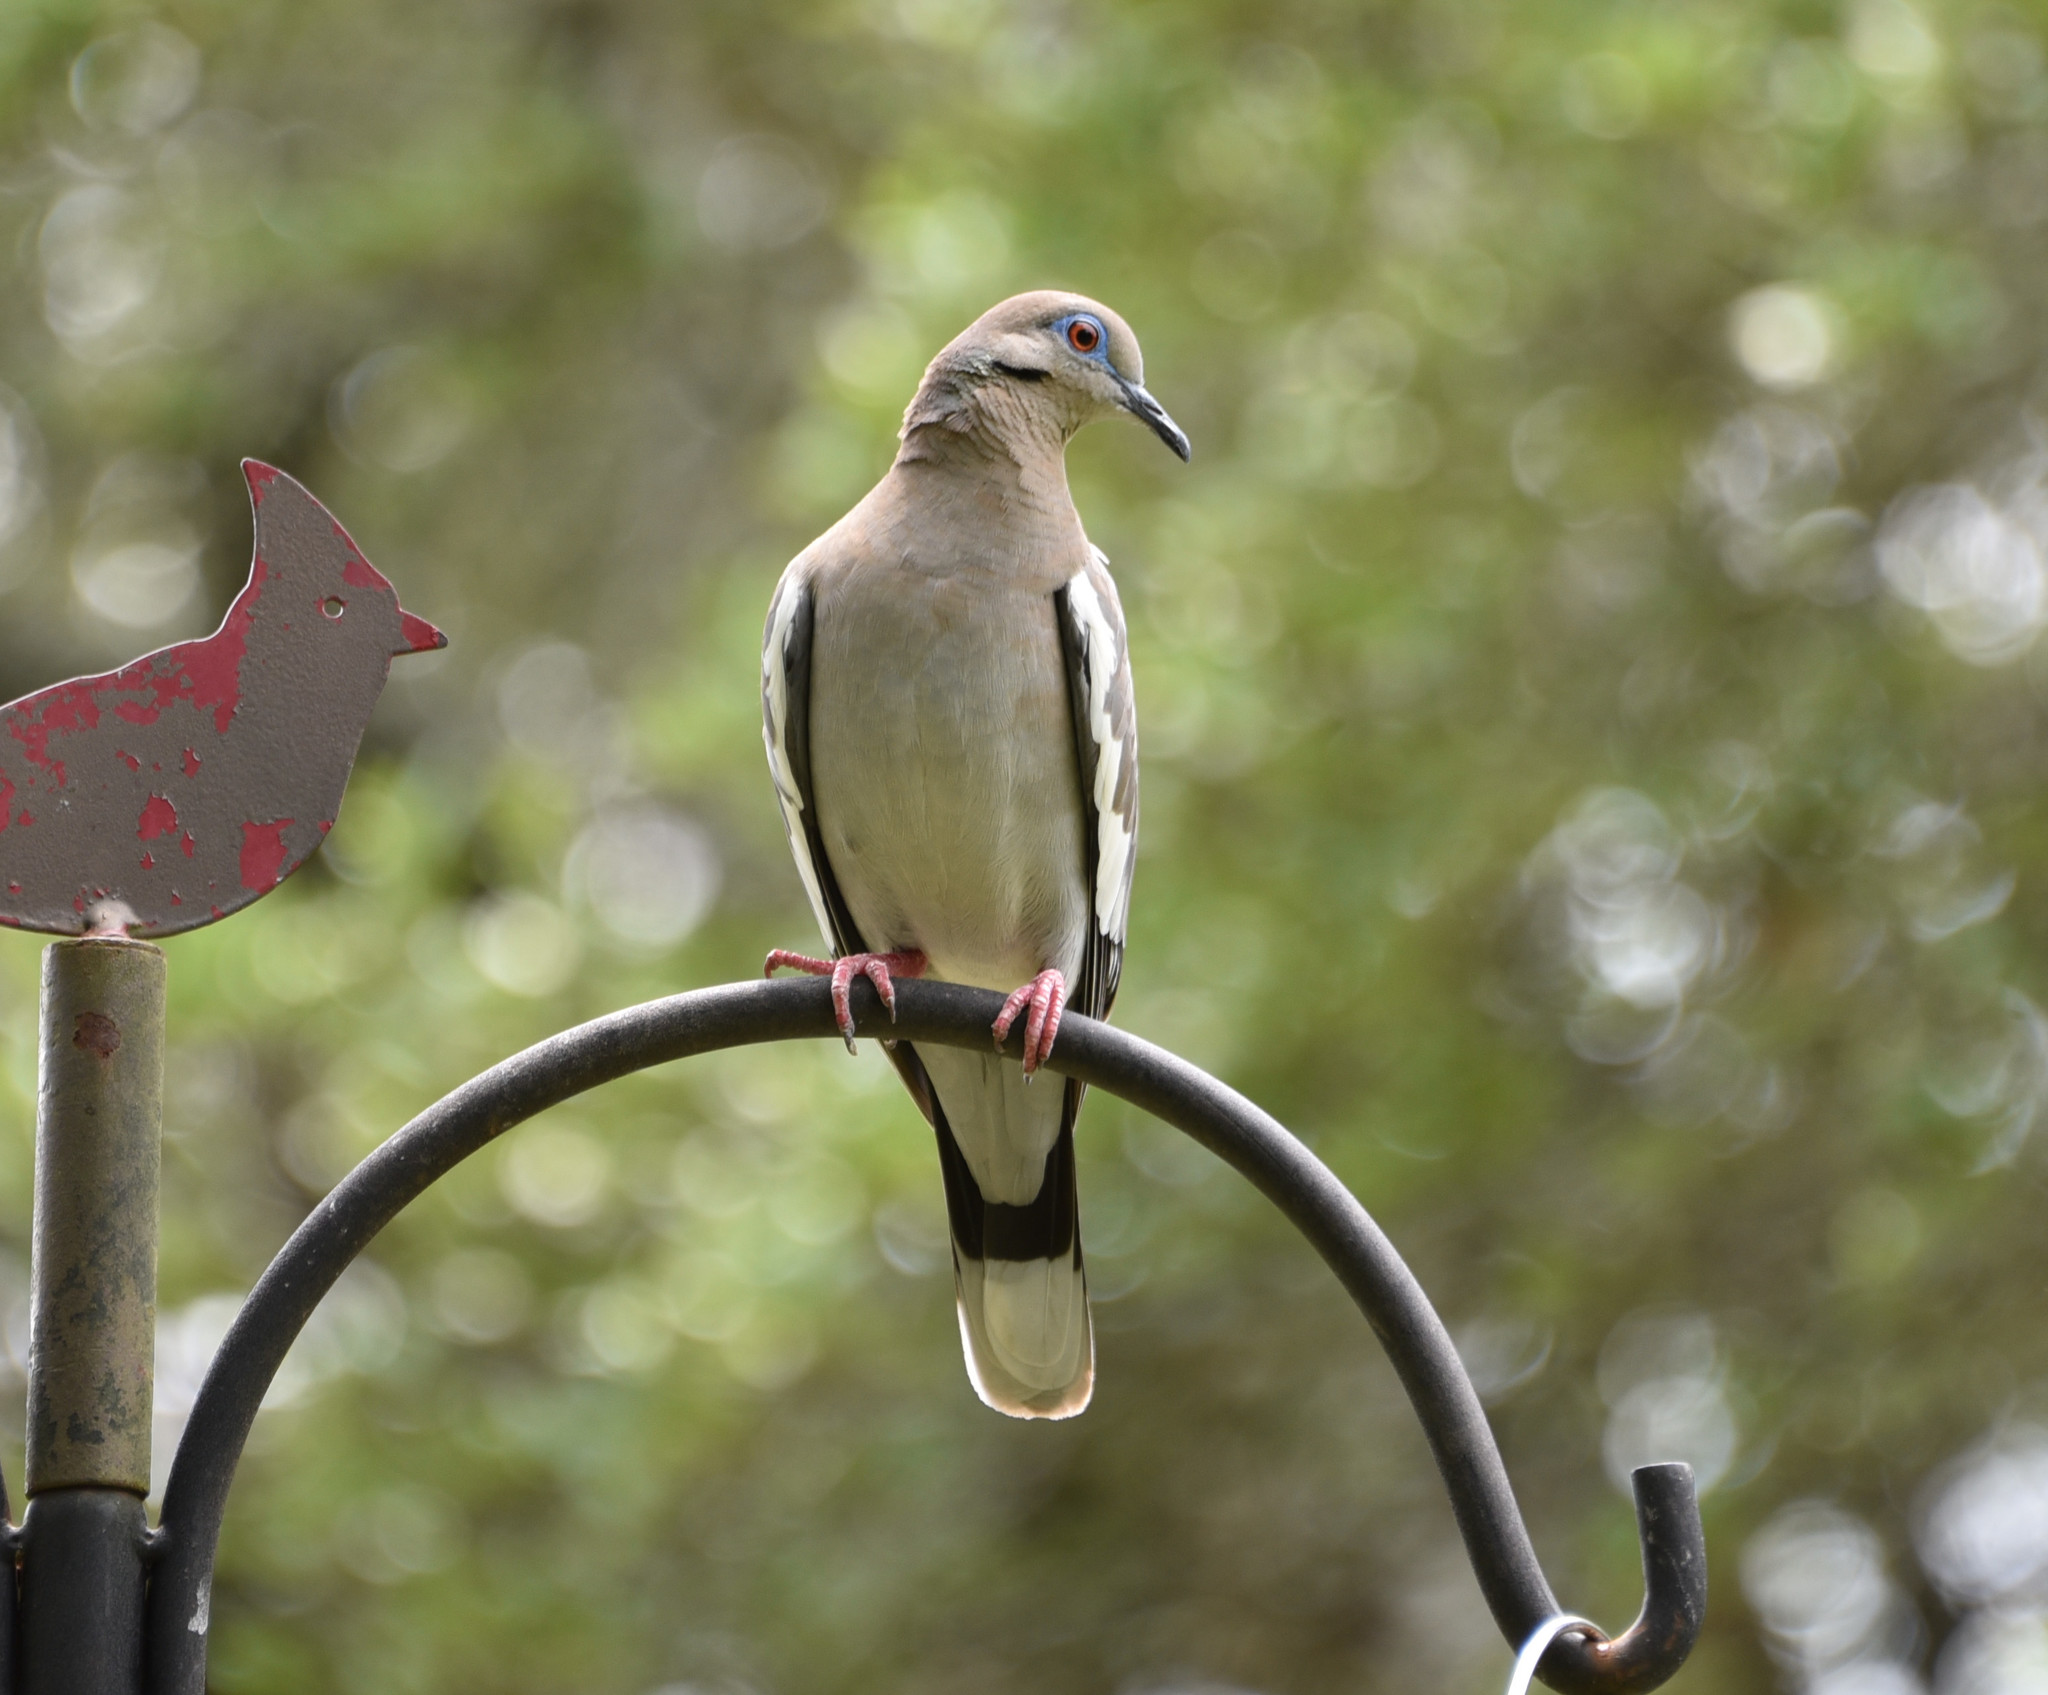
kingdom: Animalia
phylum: Chordata
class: Aves
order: Columbiformes
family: Columbidae
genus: Zenaida
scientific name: Zenaida asiatica
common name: White-winged dove
